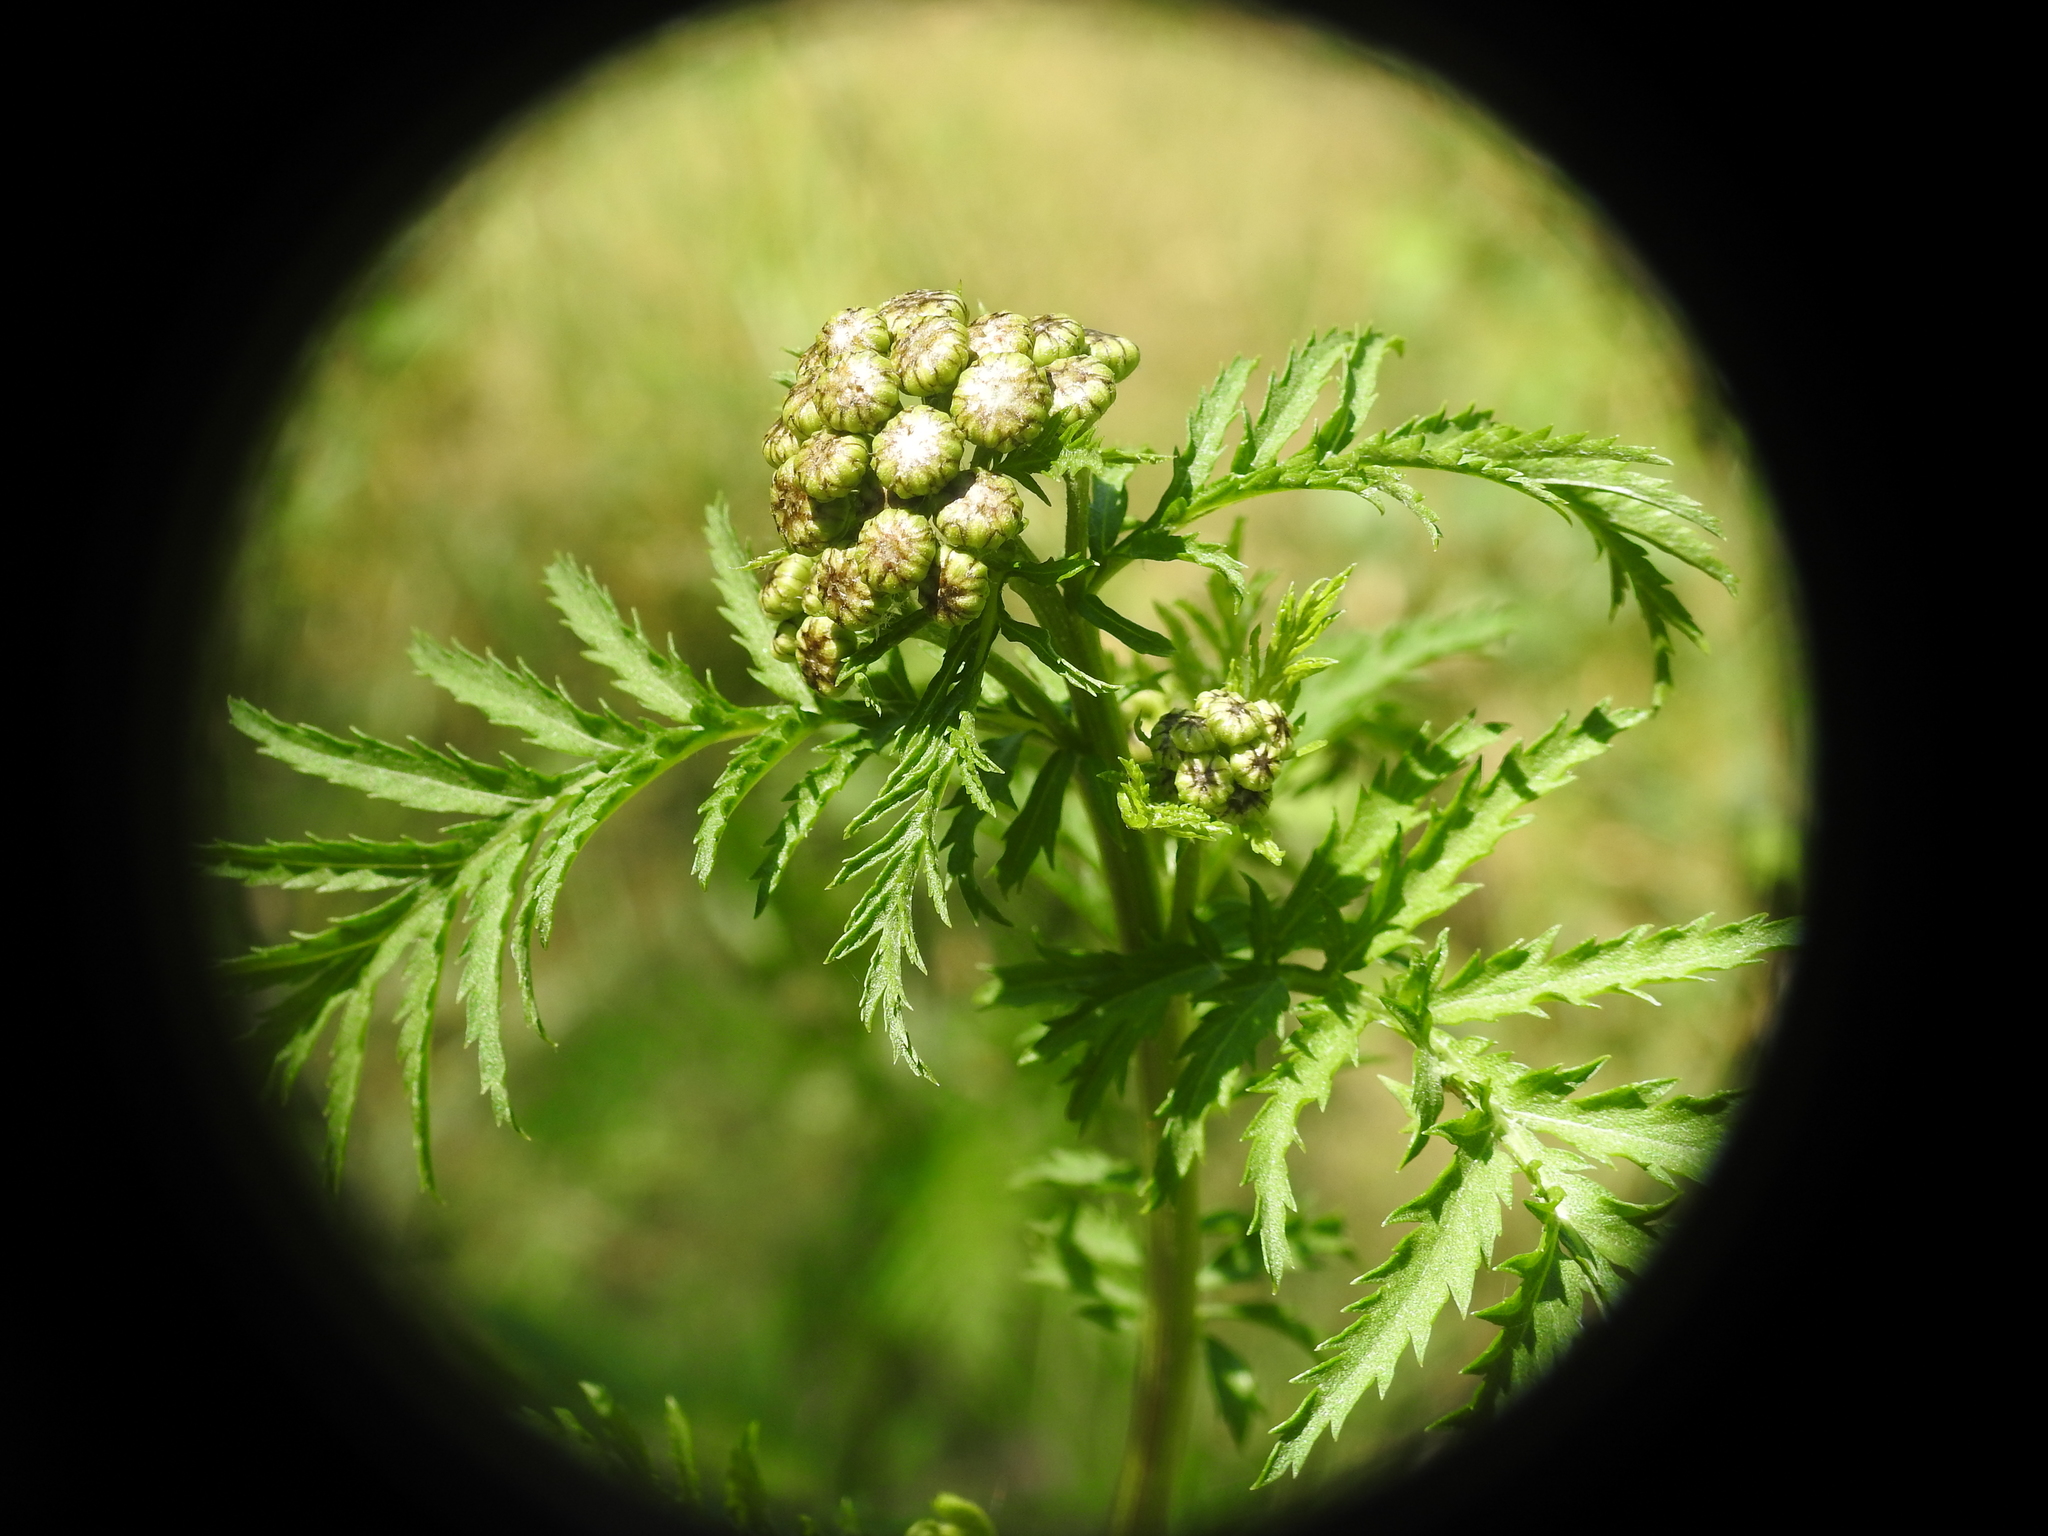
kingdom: Plantae
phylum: Tracheophyta
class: Magnoliopsida
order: Asterales
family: Asteraceae
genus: Tanacetum
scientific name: Tanacetum vulgare
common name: Common tansy
